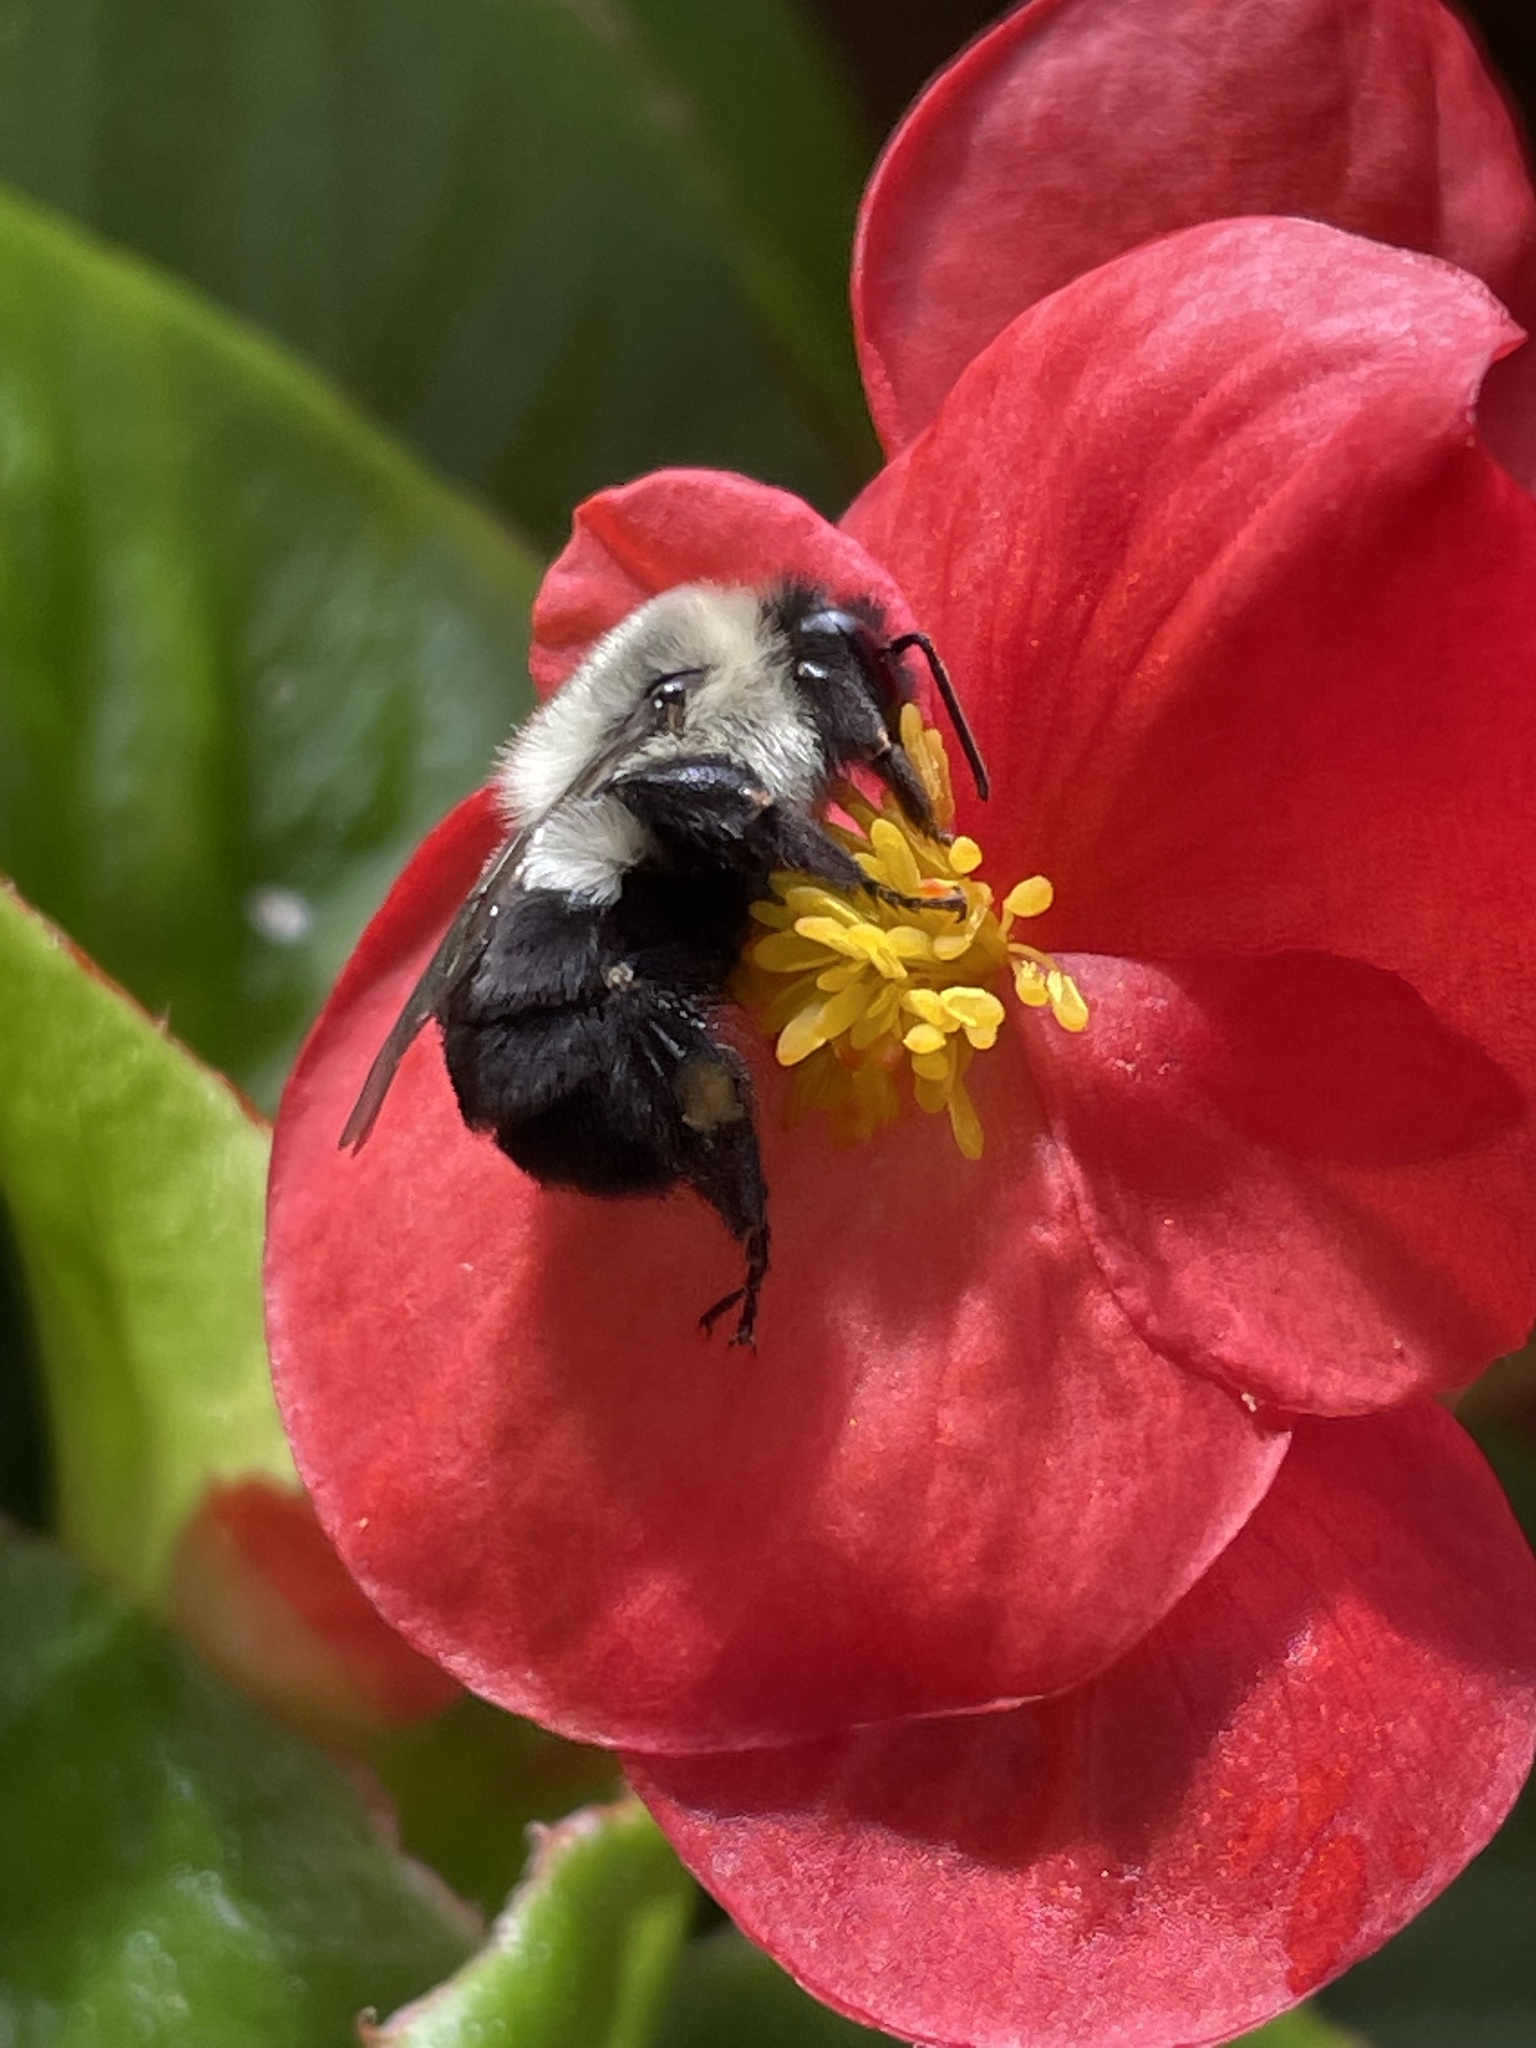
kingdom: Animalia
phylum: Arthropoda
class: Insecta
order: Hymenoptera
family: Apidae
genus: Bombus
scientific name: Bombus impatiens
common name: Common eastern bumble bee
